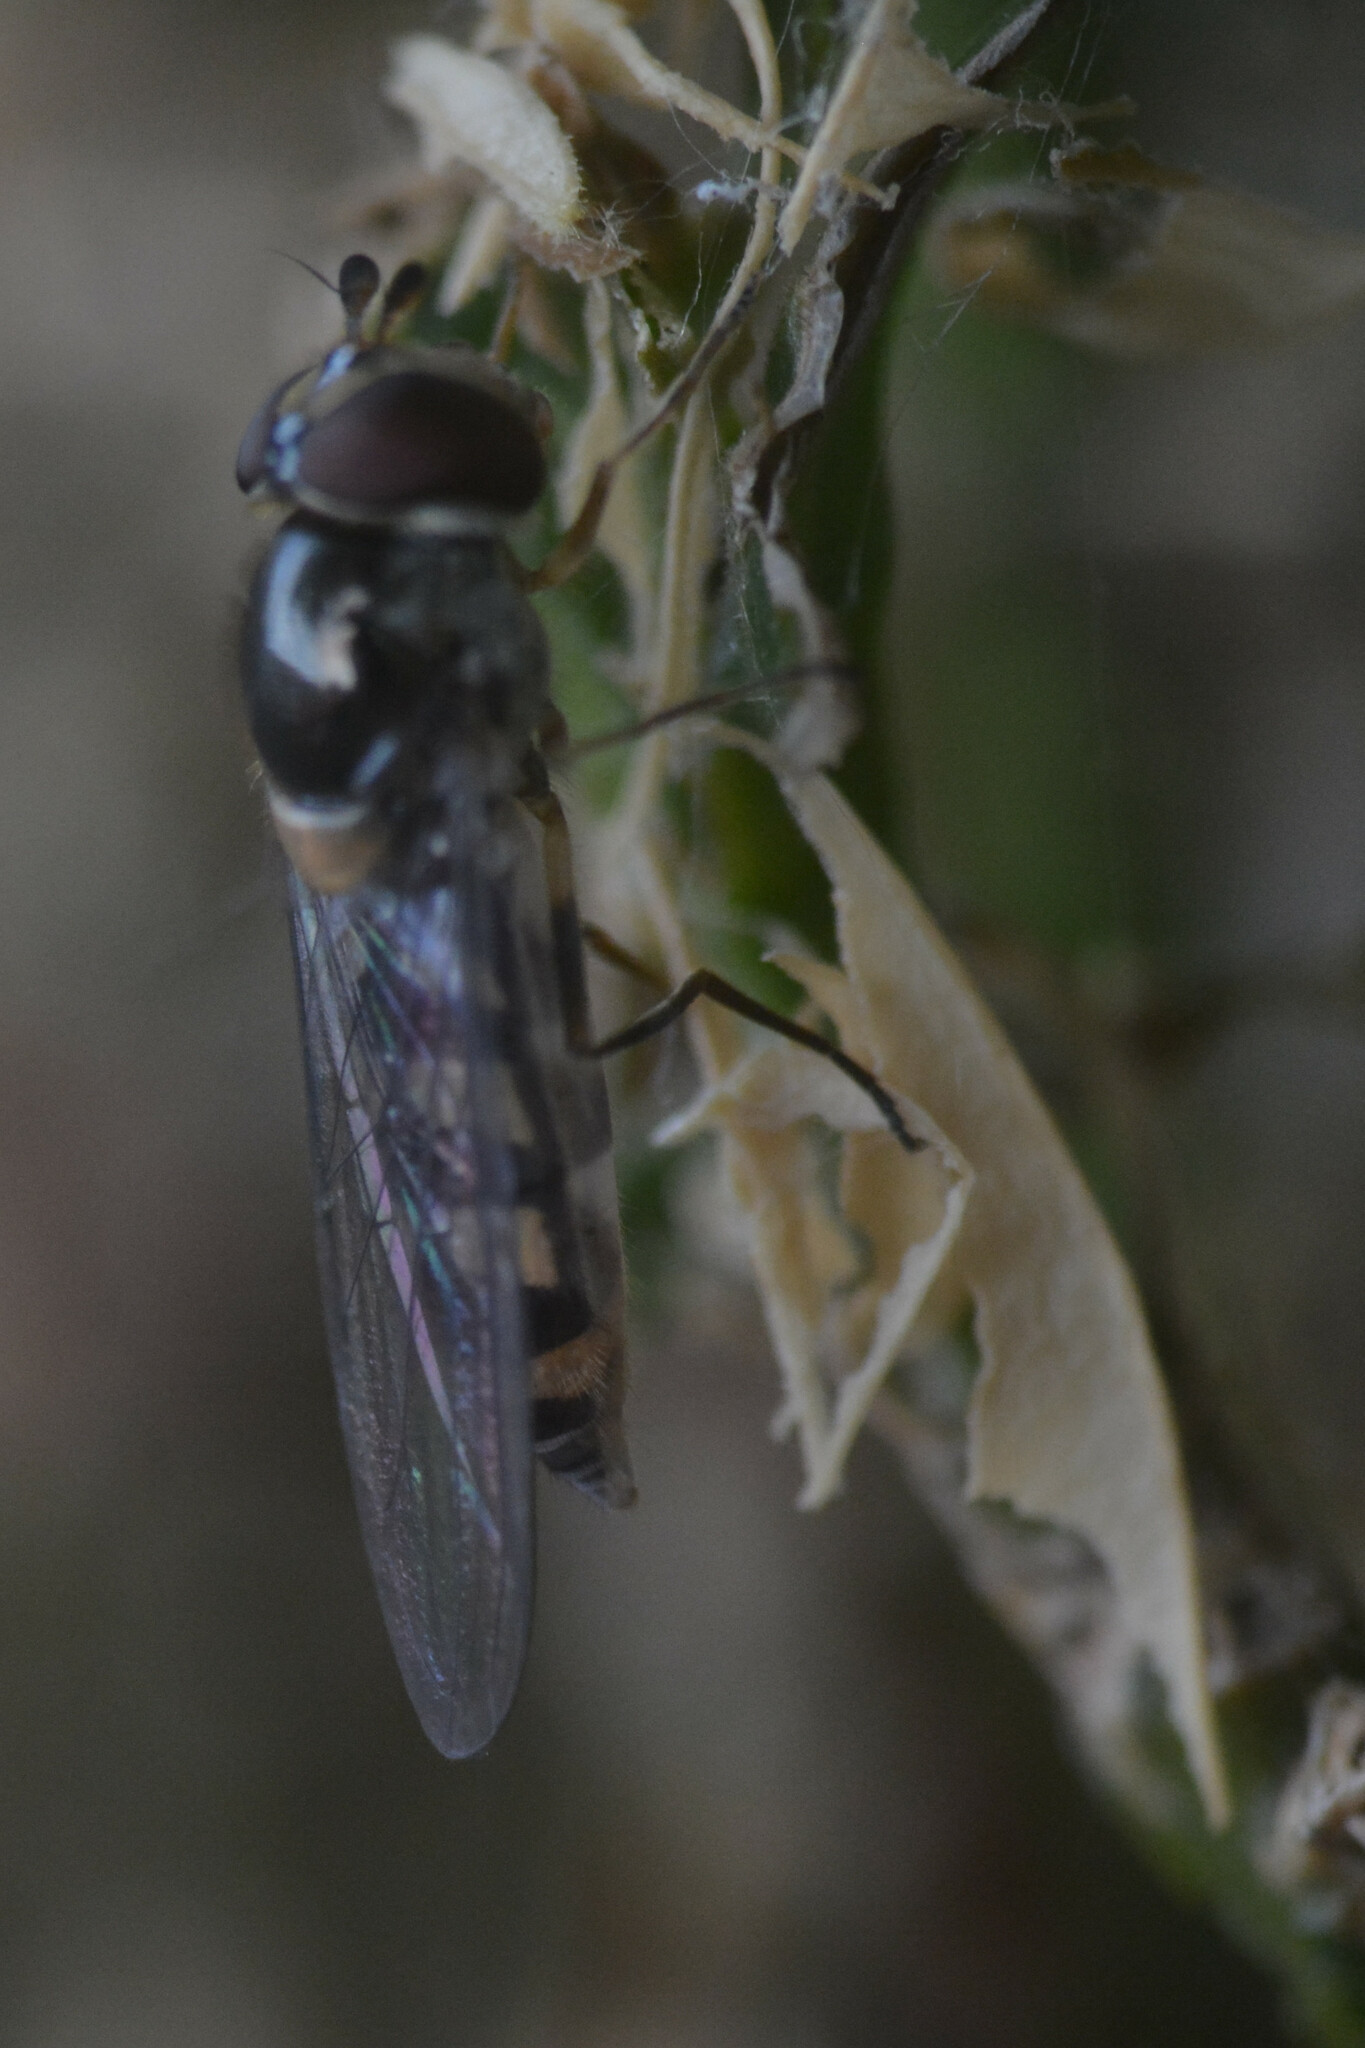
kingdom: Animalia
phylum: Arthropoda
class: Insecta
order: Diptera
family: Syrphidae
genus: Meliscaeva
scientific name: Meliscaeva auricollis
